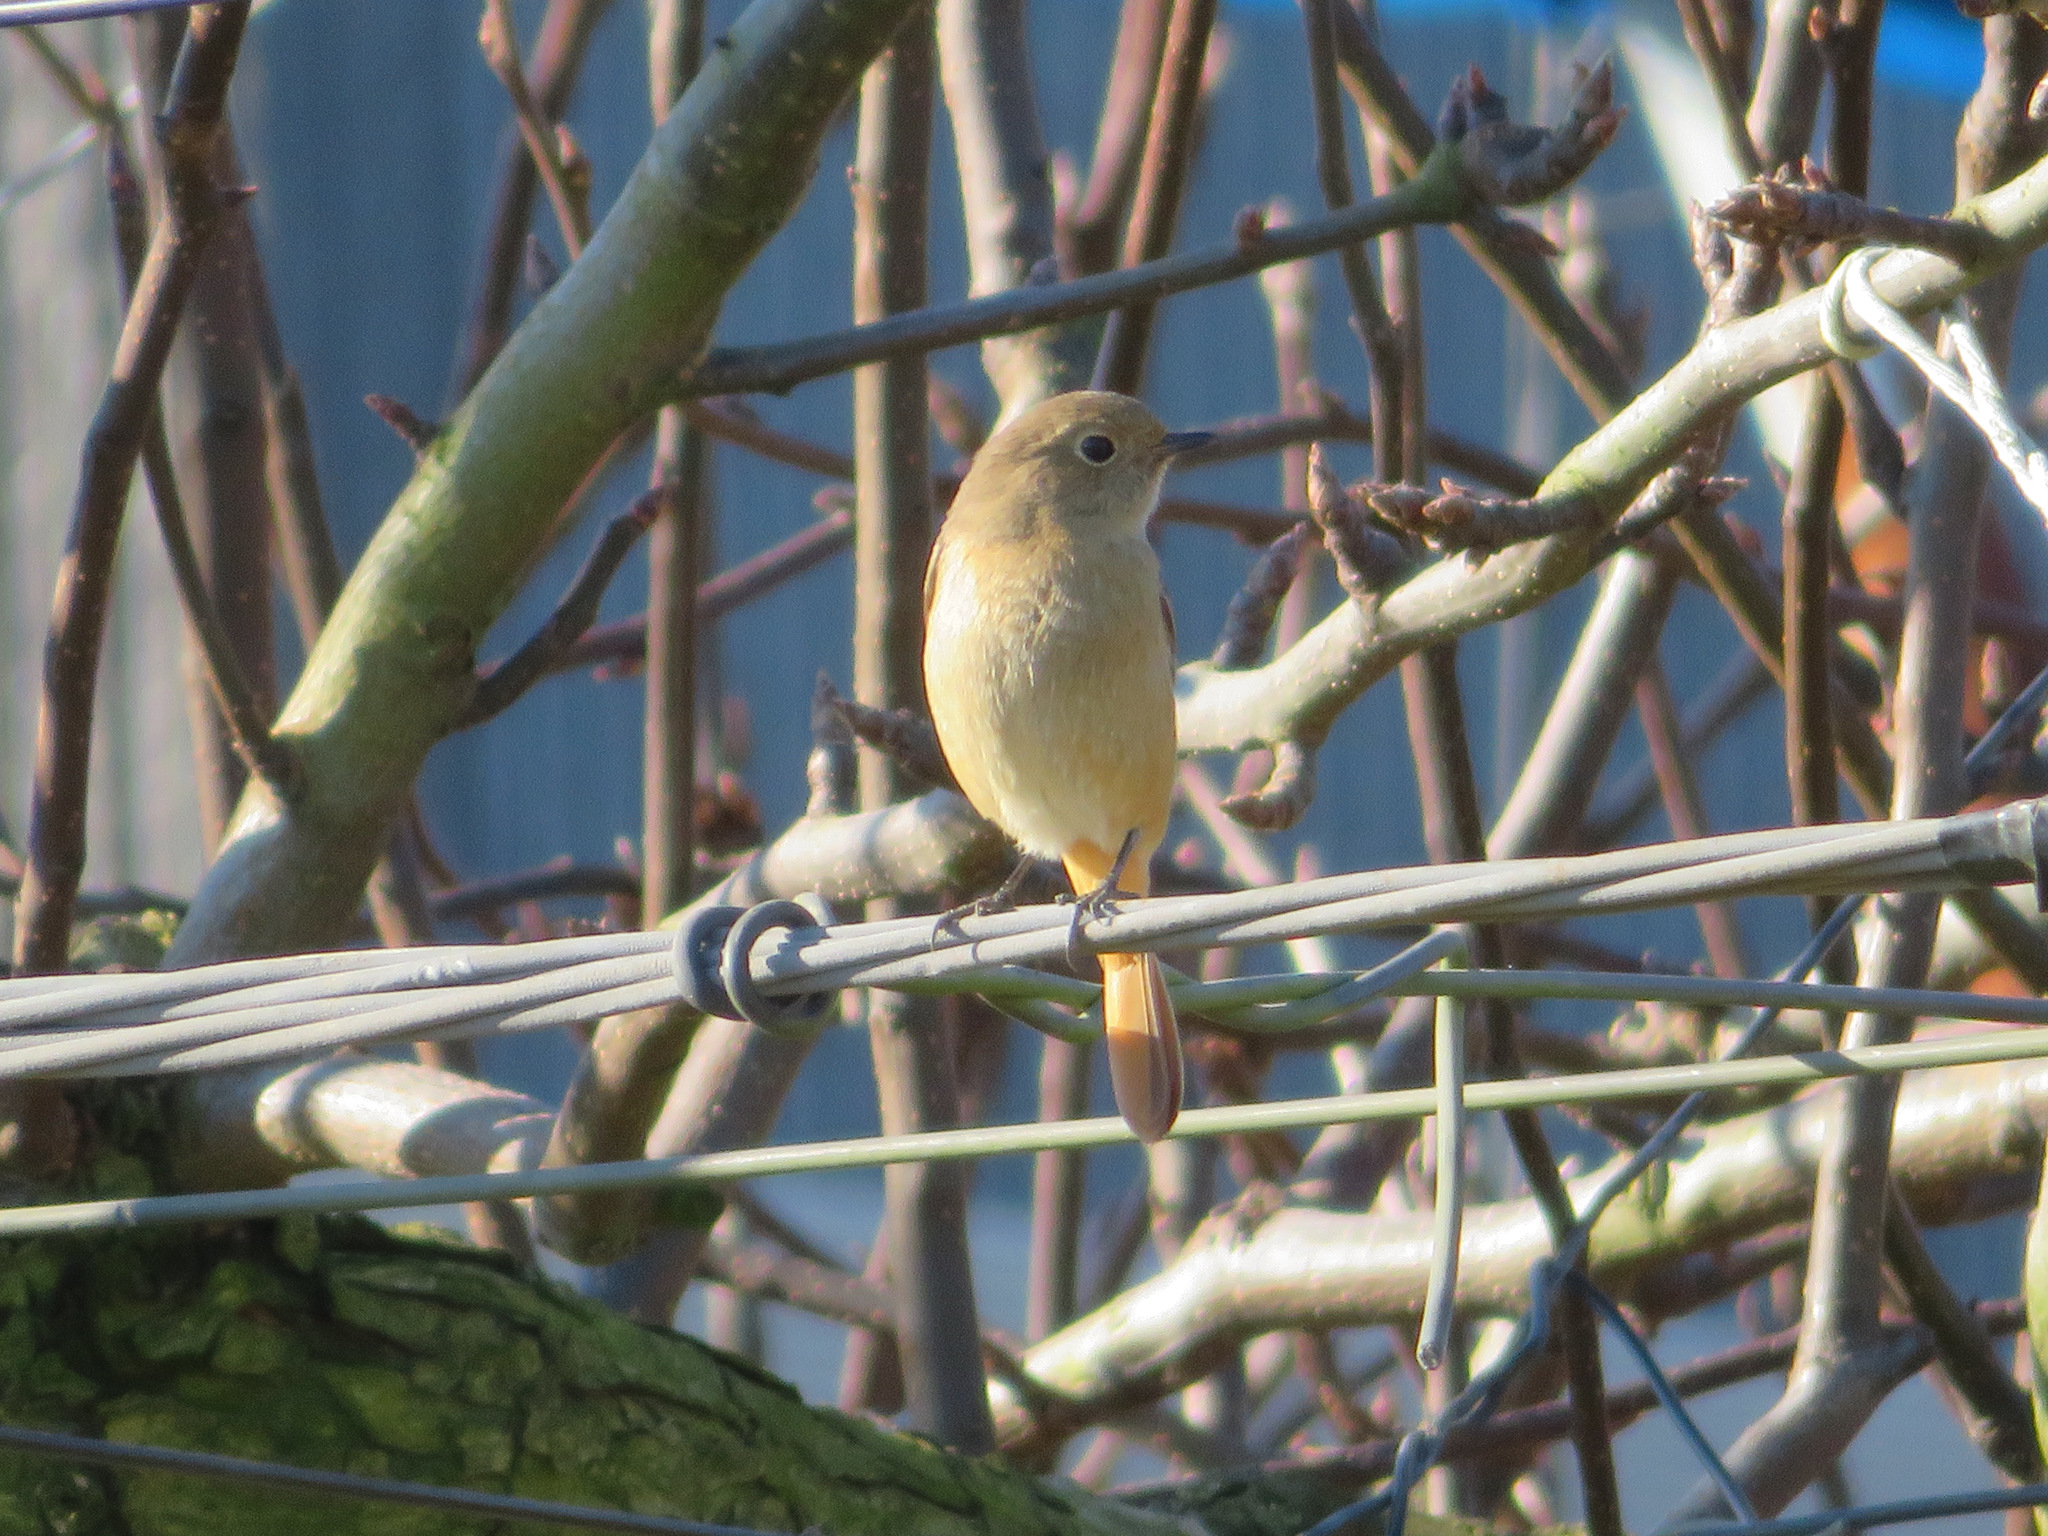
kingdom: Animalia
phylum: Chordata
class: Aves
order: Passeriformes
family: Muscicapidae
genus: Phoenicurus
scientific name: Phoenicurus auroreus
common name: Daurian redstart
